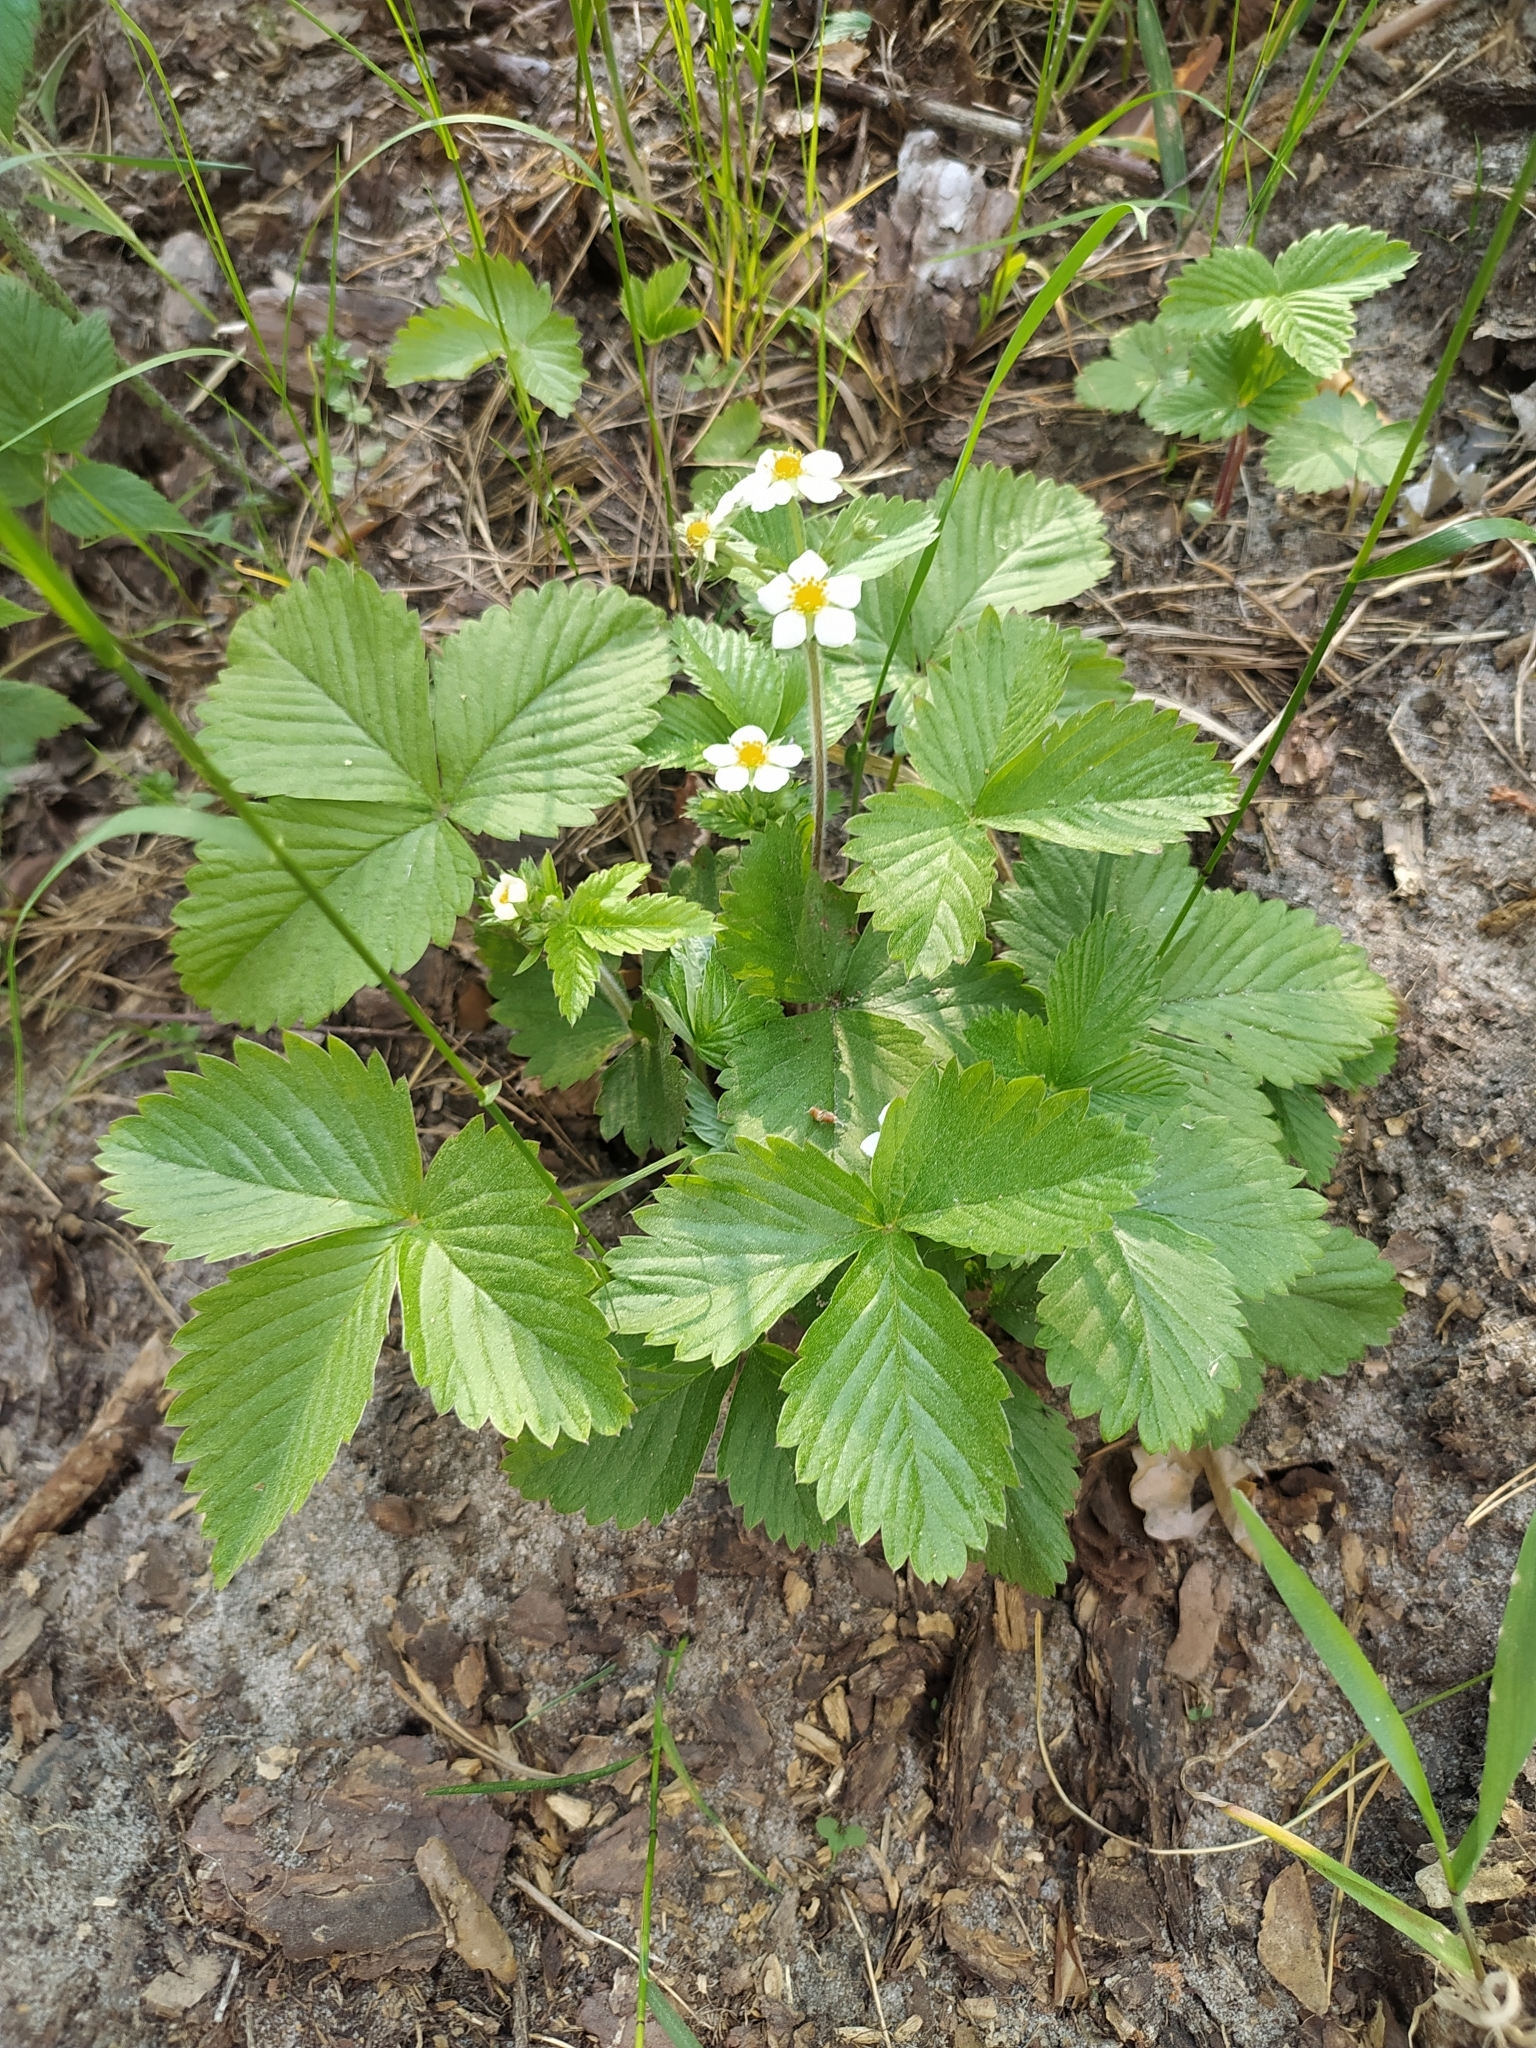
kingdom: Plantae
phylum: Tracheophyta
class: Magnoliopsida
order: Rosales
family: Rosaceae
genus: Fragaria
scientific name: Fragaria vesca
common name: Wild strawberry
